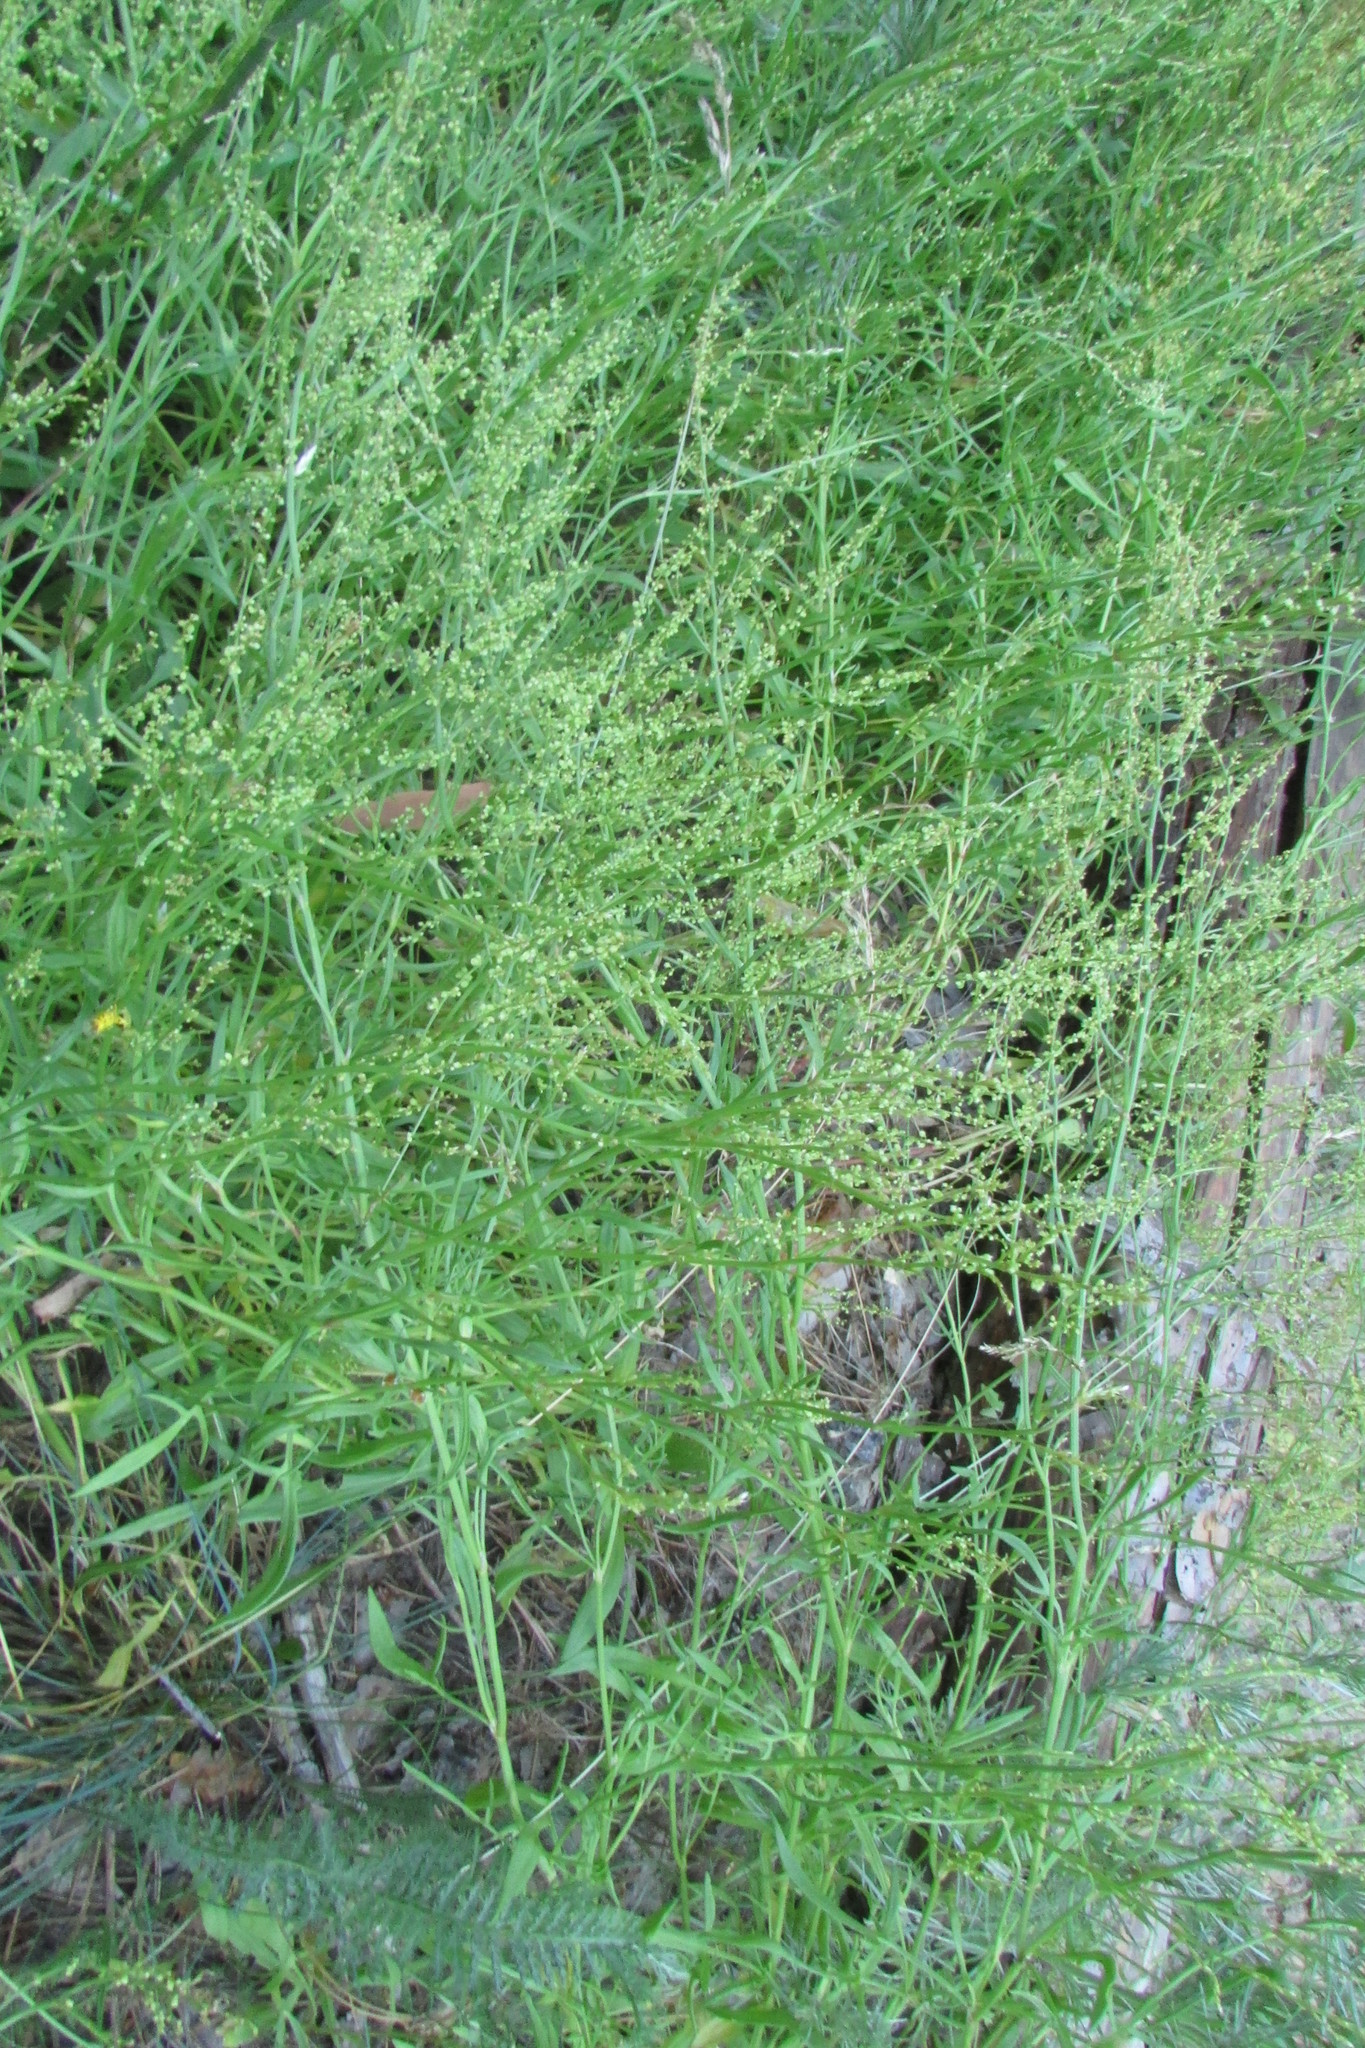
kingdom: Plantae
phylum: Tracheophyta
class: Magnoliopsida
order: Caryophyllales
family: Polygonaceae
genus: Rumex
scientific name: Rumex acetosella
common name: Common sheep sorrel
